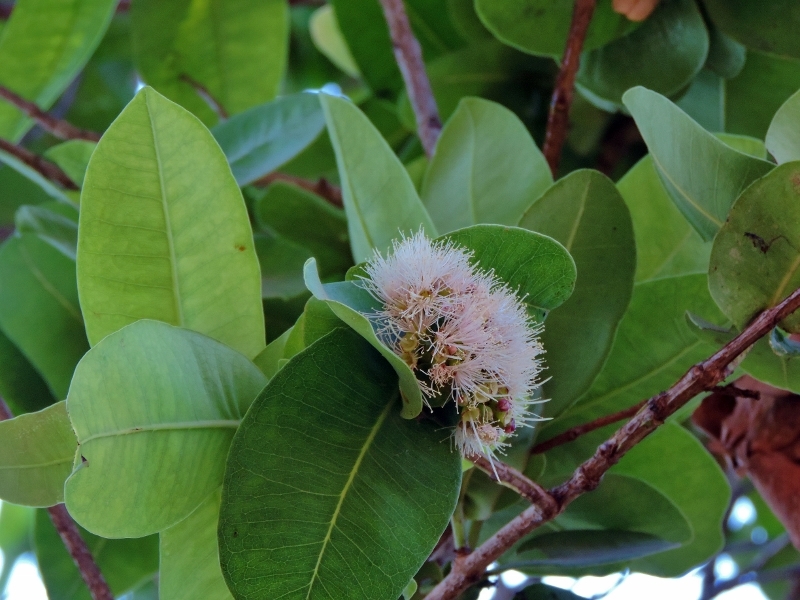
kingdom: Plantae
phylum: Tracheophyta
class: Magnoliopsida
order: Myrtales
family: Myrtaceae
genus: Syzygium
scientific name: Syzygium cordatum
